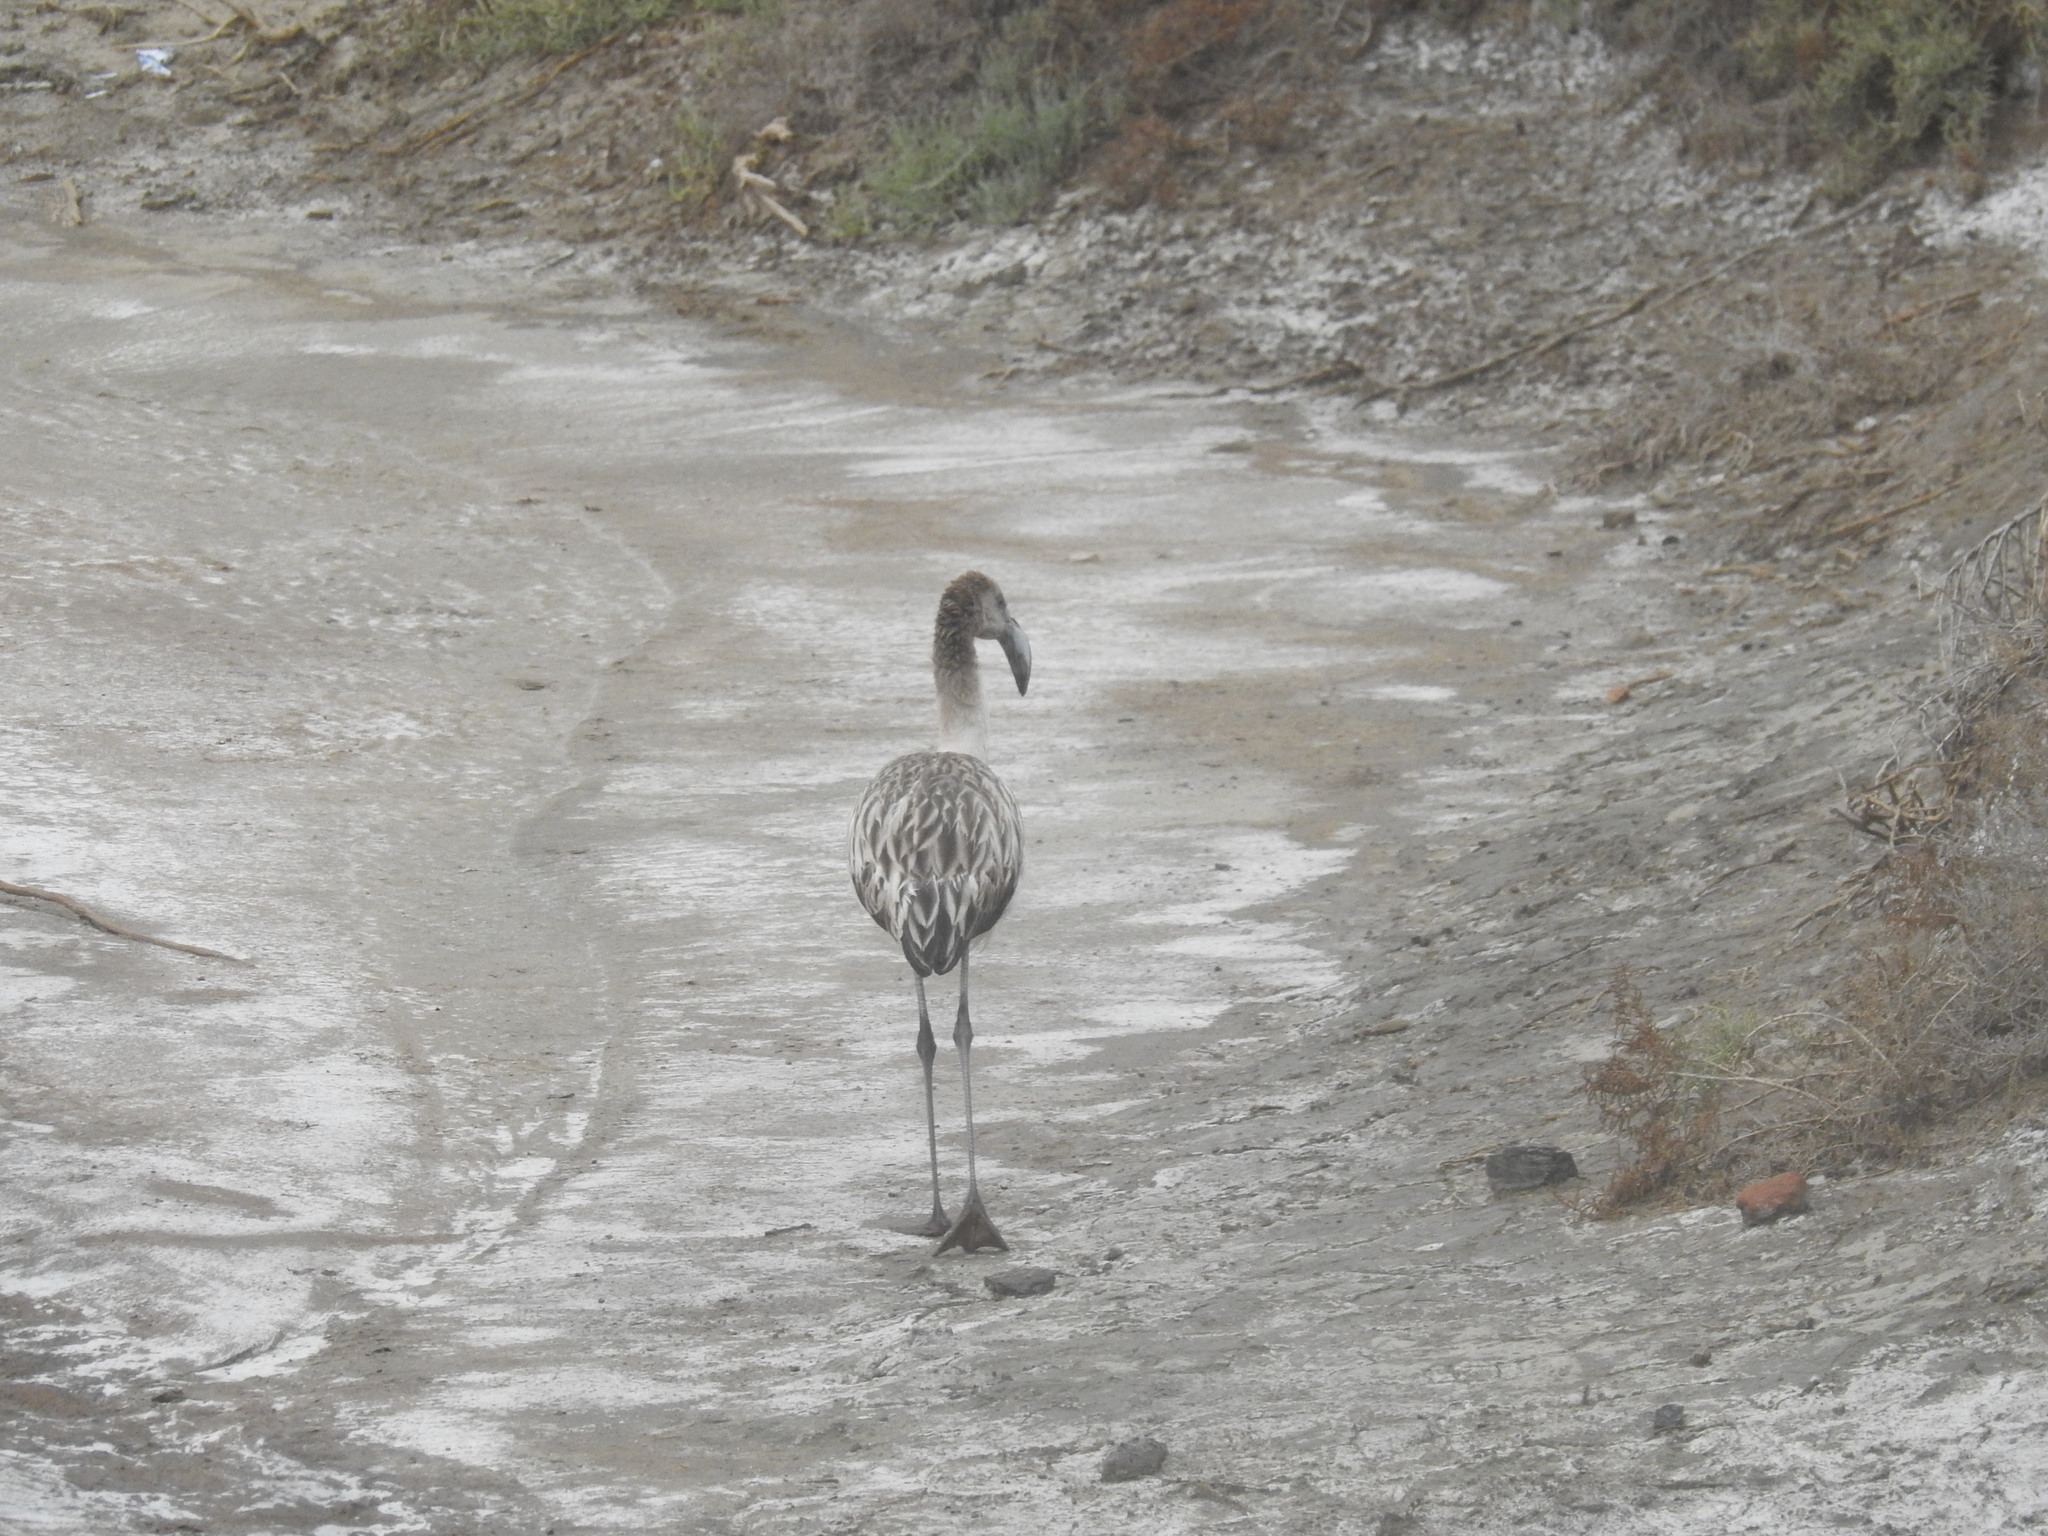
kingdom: Animalia
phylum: Chordata
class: Aves
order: Phoenicopteriformes
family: Phoenicopteridae
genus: Phoenicopterus
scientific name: Phoenicopterus chilensis
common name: Chilean flamingo
